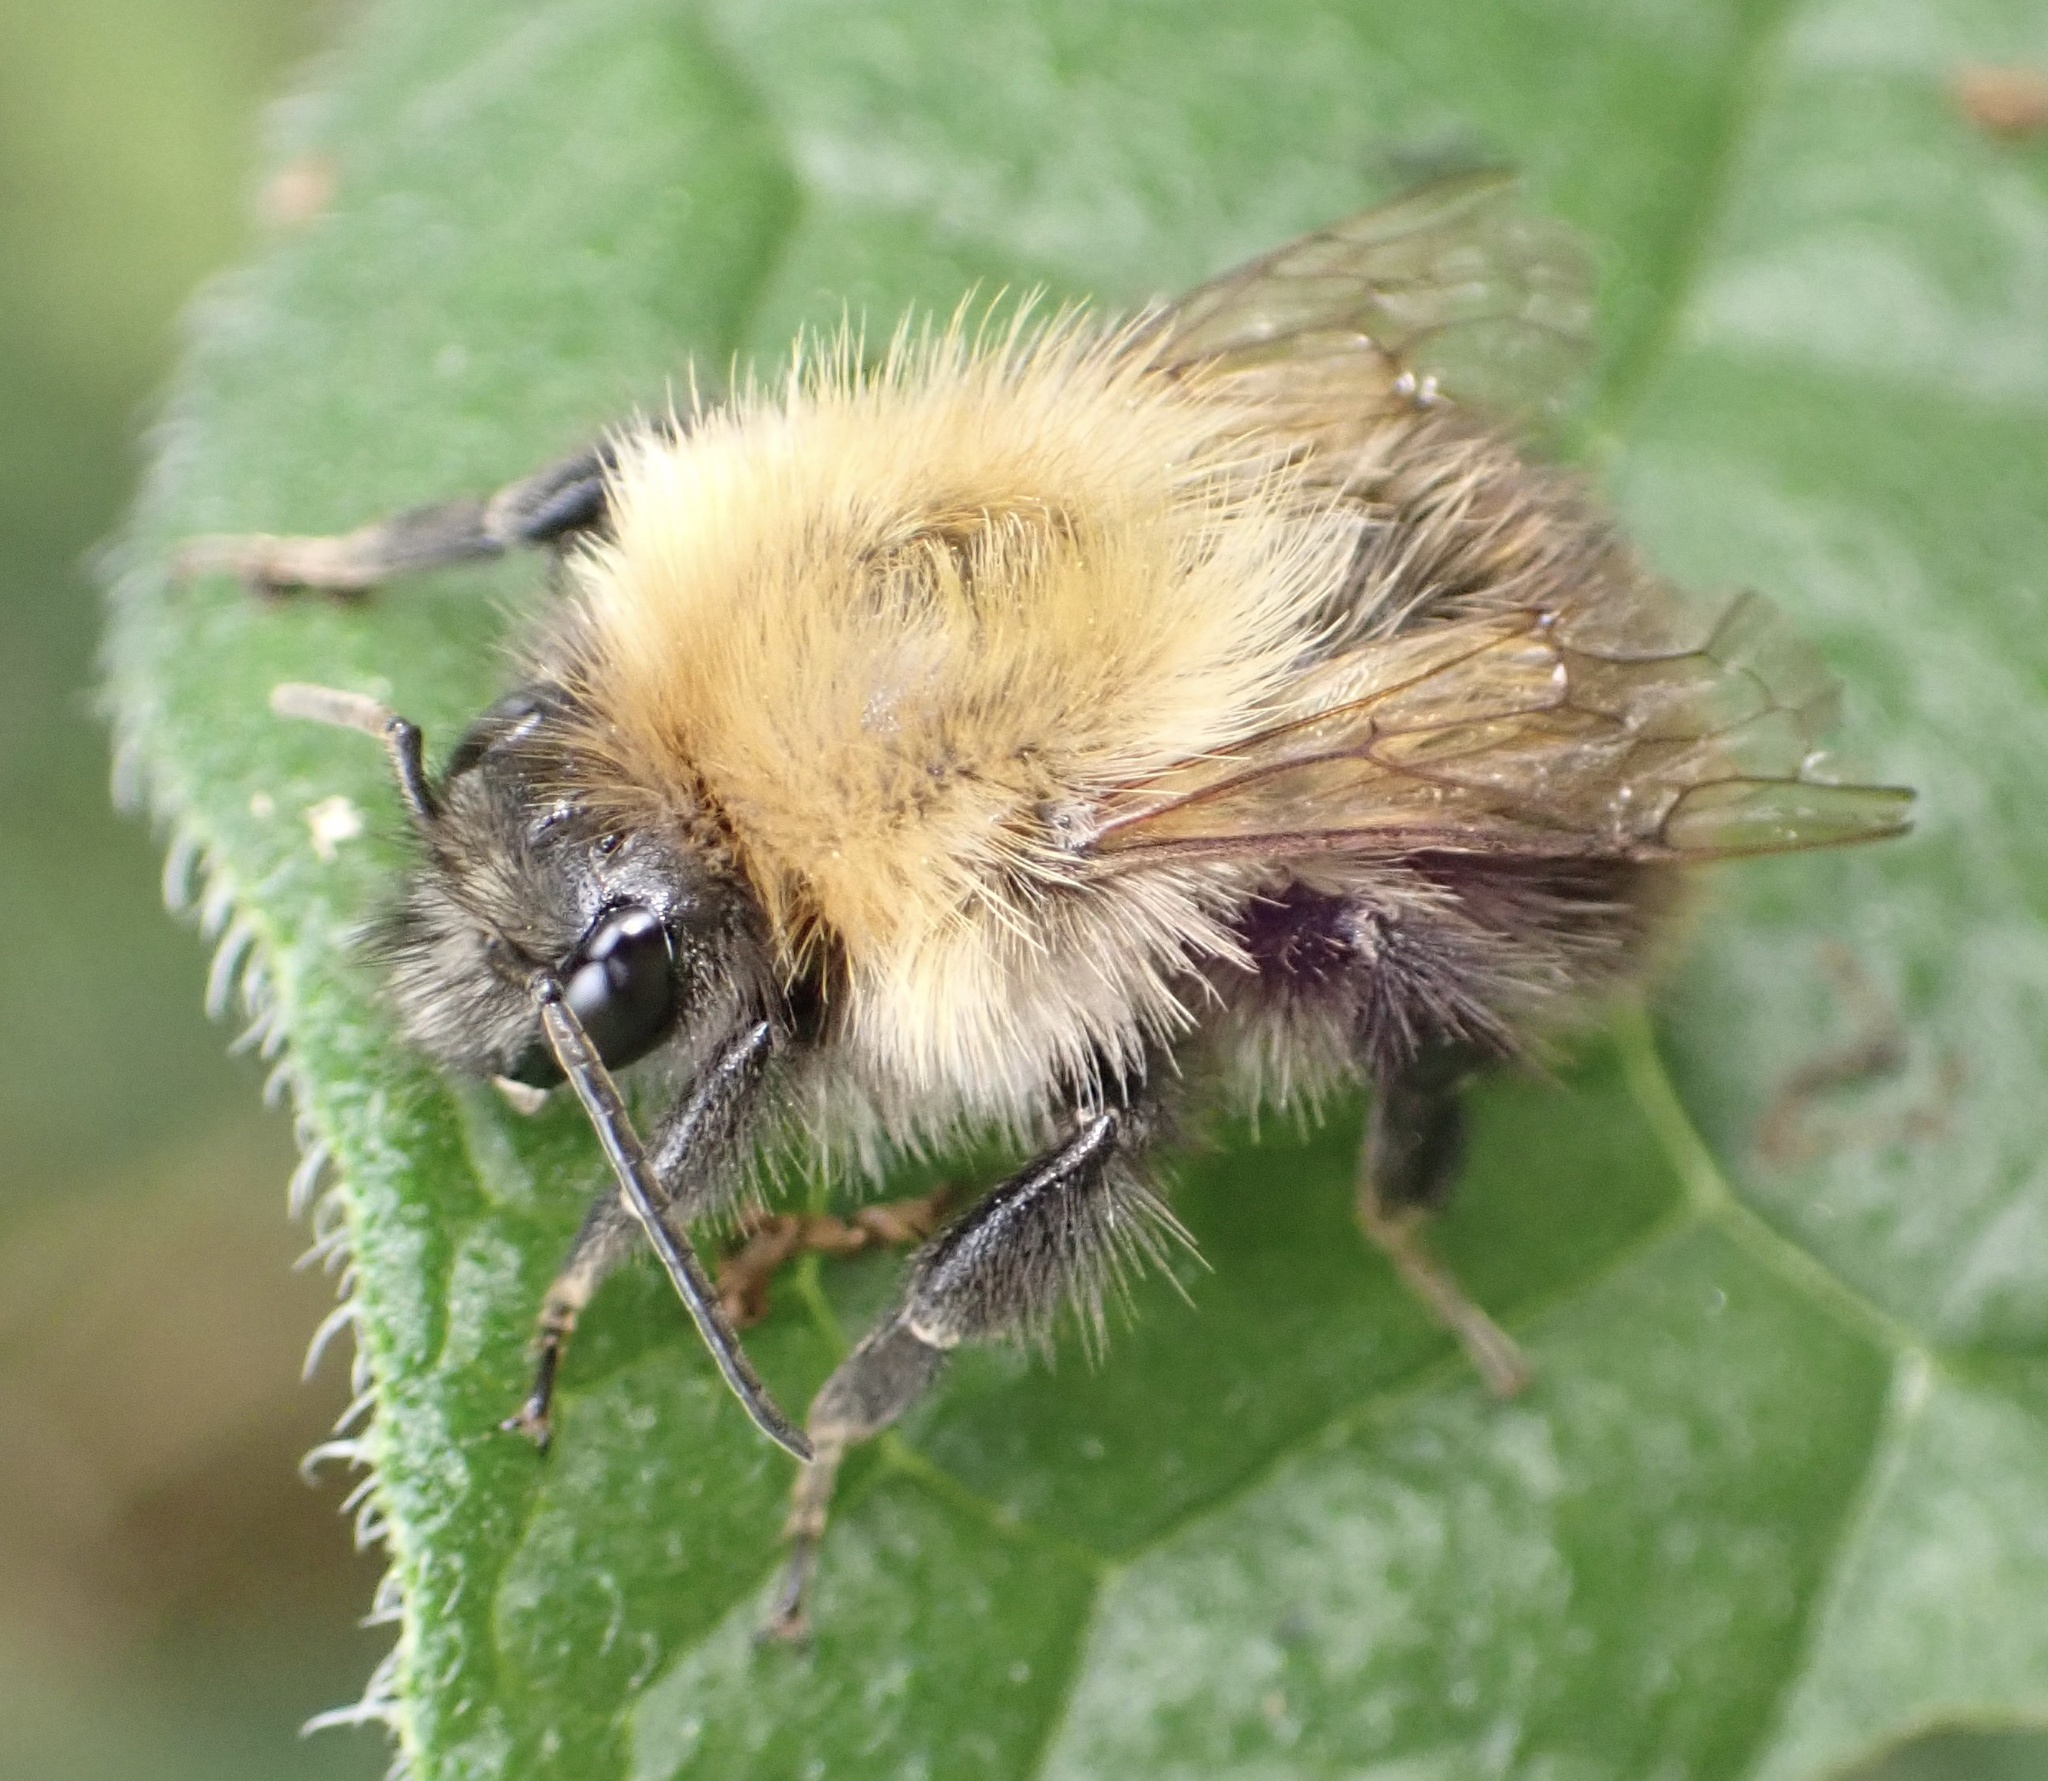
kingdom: Animalia
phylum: Arthropoda
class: Insecta
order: Hymenoptera
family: Apidae
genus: Bombus
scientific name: Bombus pascuorum
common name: Common carder bee
